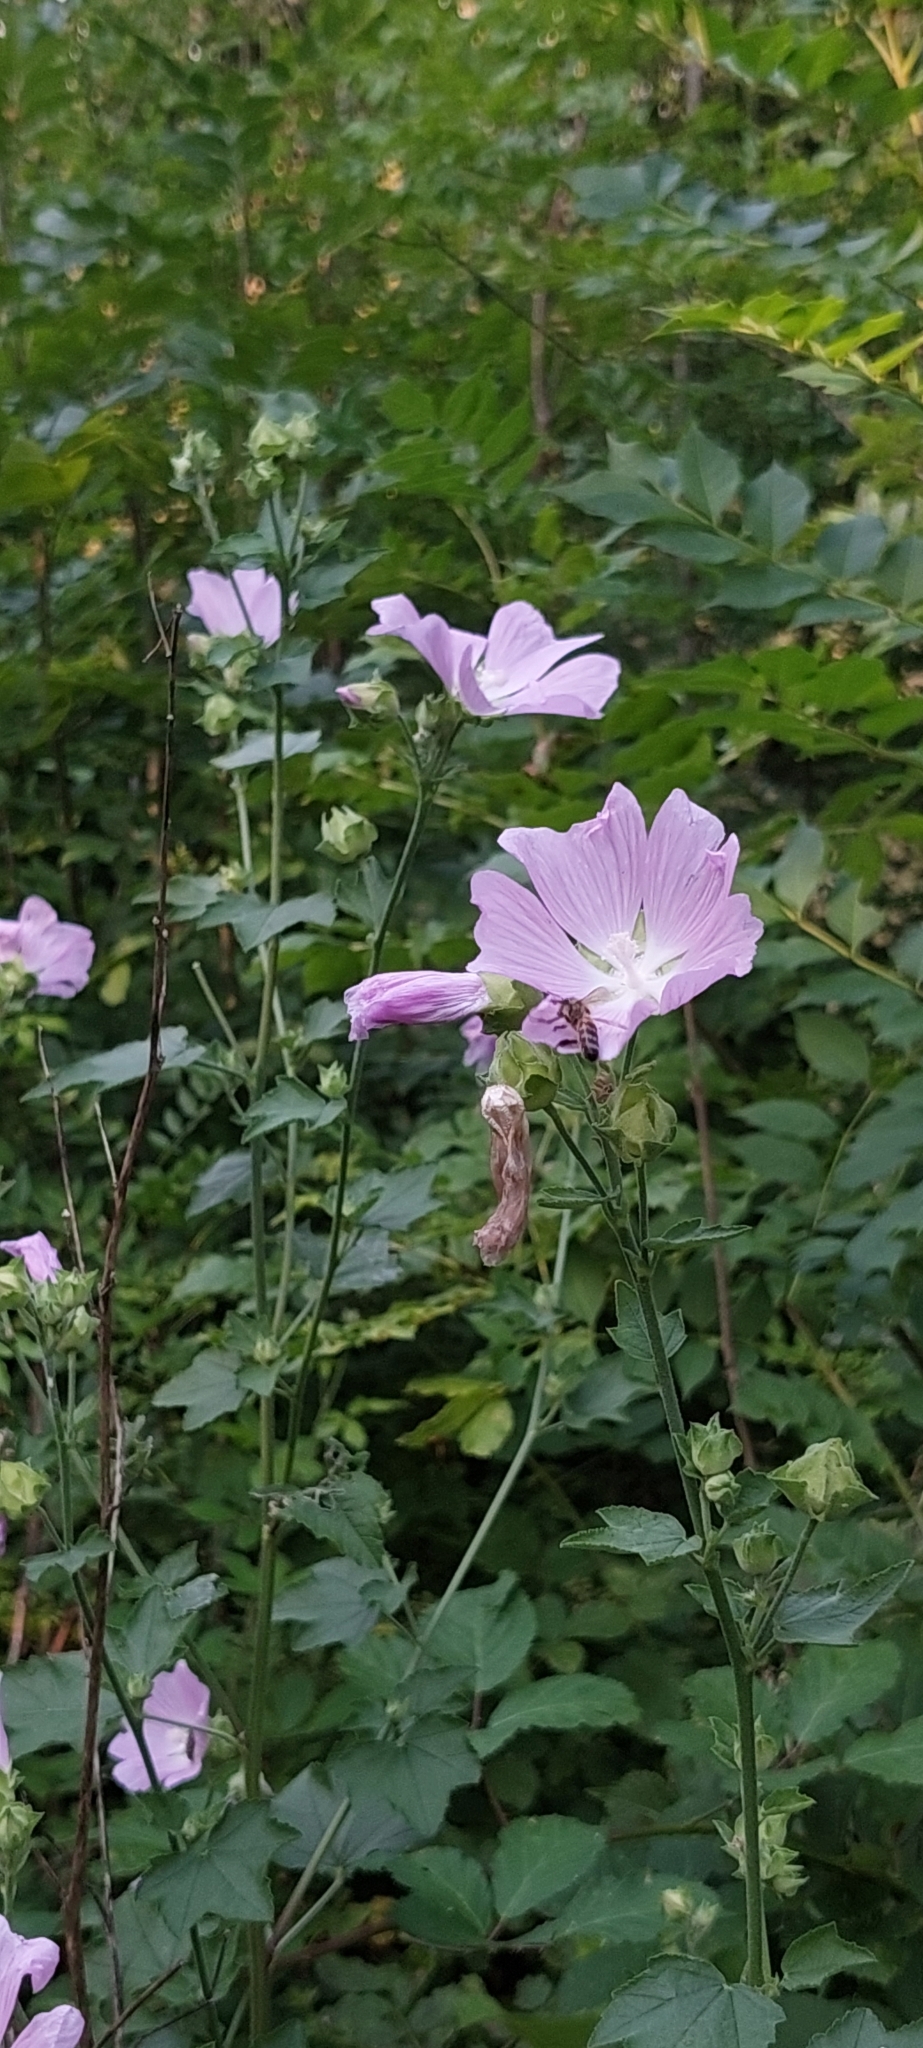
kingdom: Plantae
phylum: Tracheophyta
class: Magnoliopsida
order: Malvales
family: Malvaceae
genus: Malva
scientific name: Malva thuringiaca
